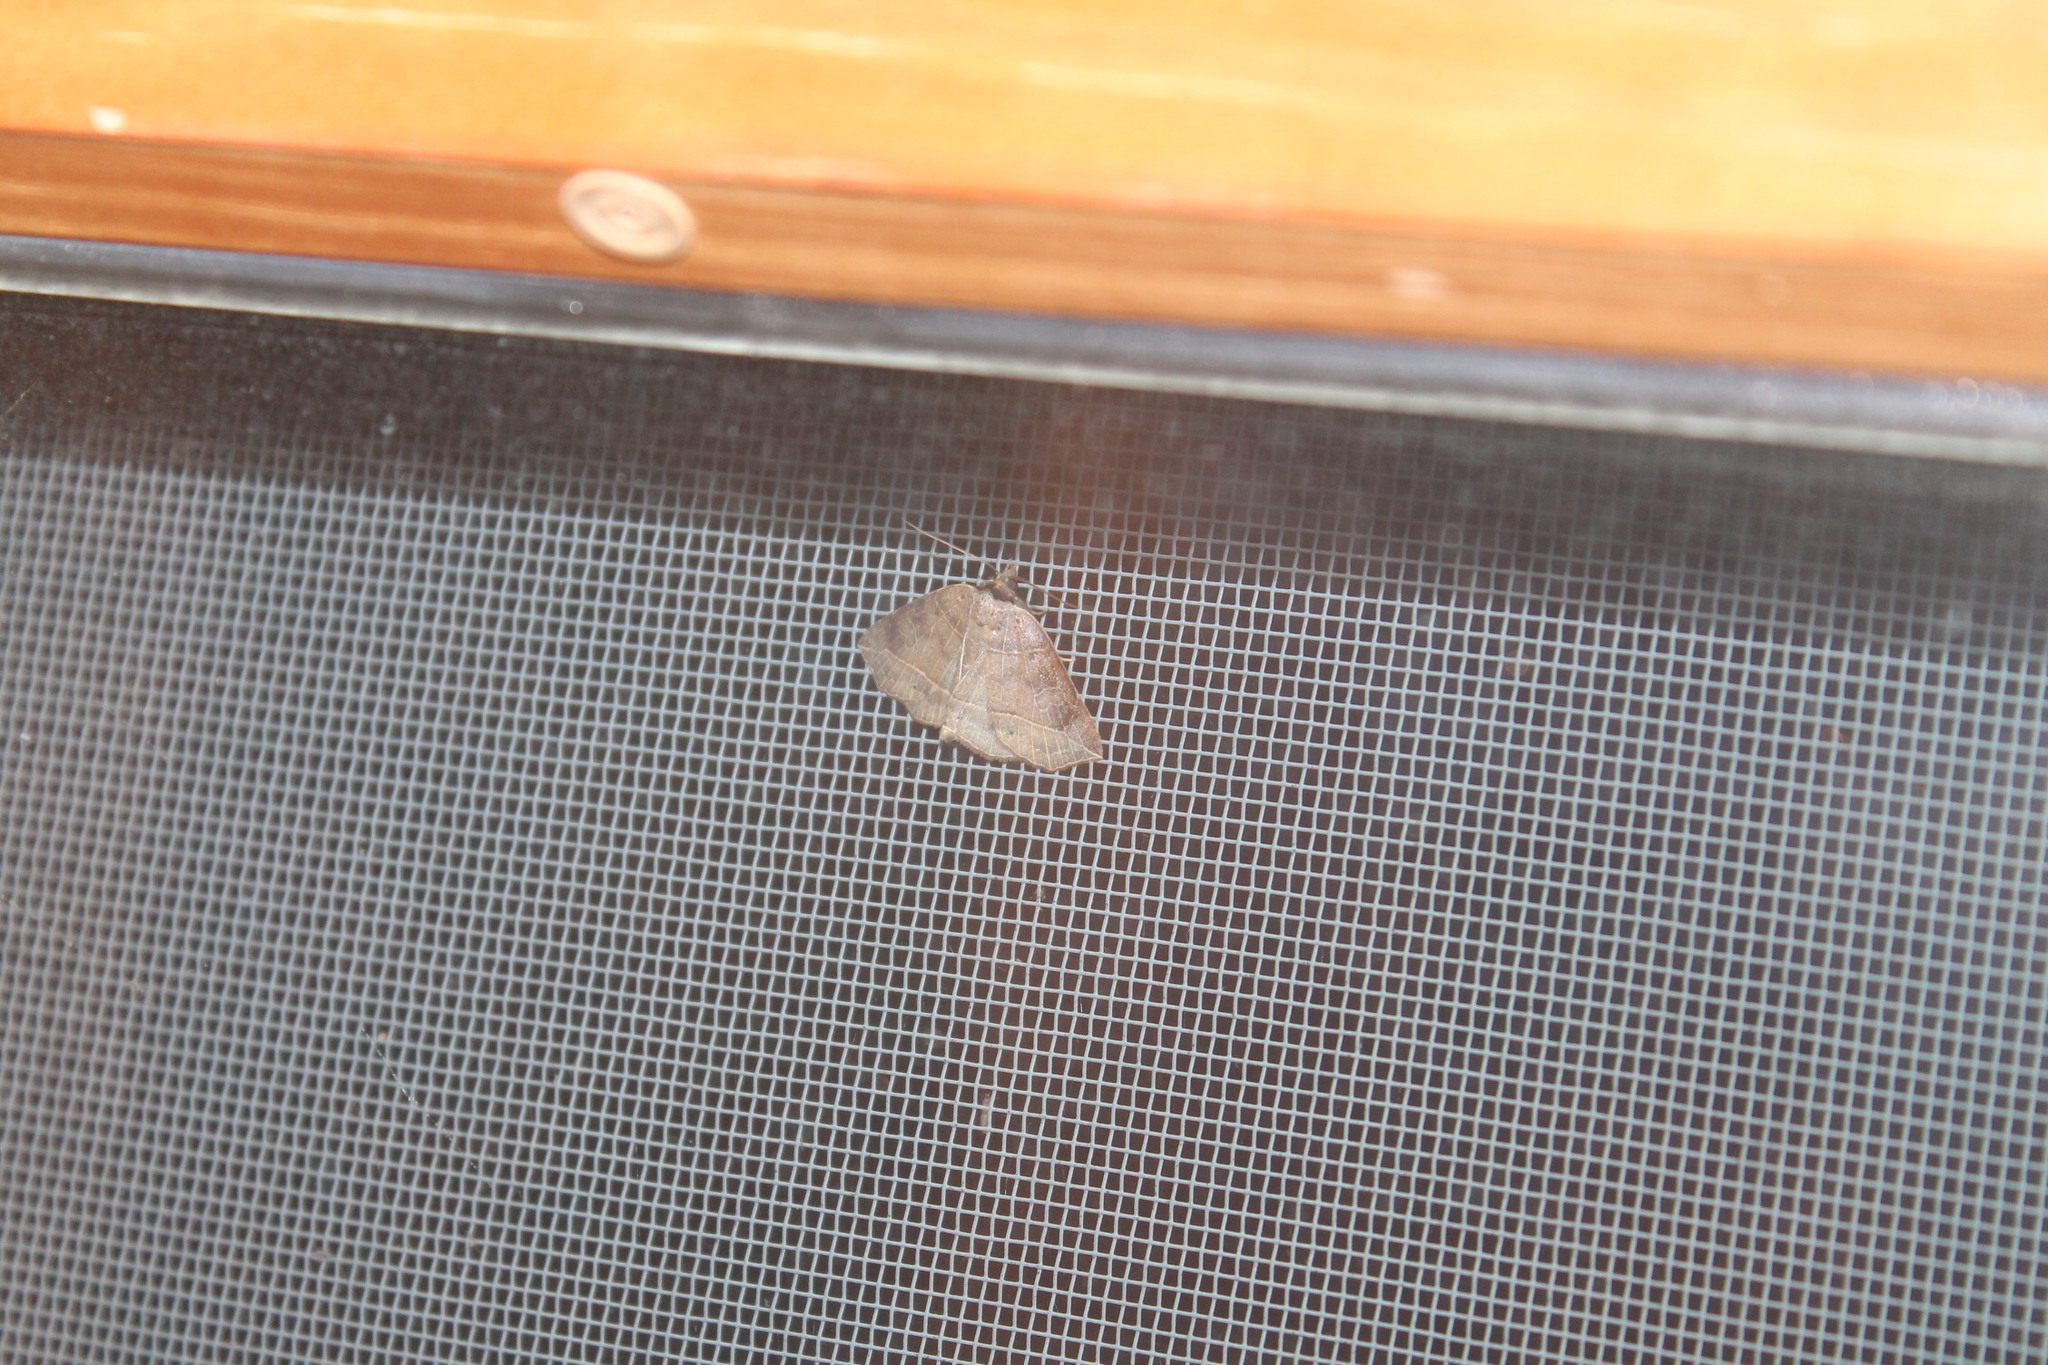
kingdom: Animalia
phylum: Arthropoda
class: Insecta
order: Lepidoptera
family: Erebidae
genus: Isogona
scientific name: Isogona tenuis
